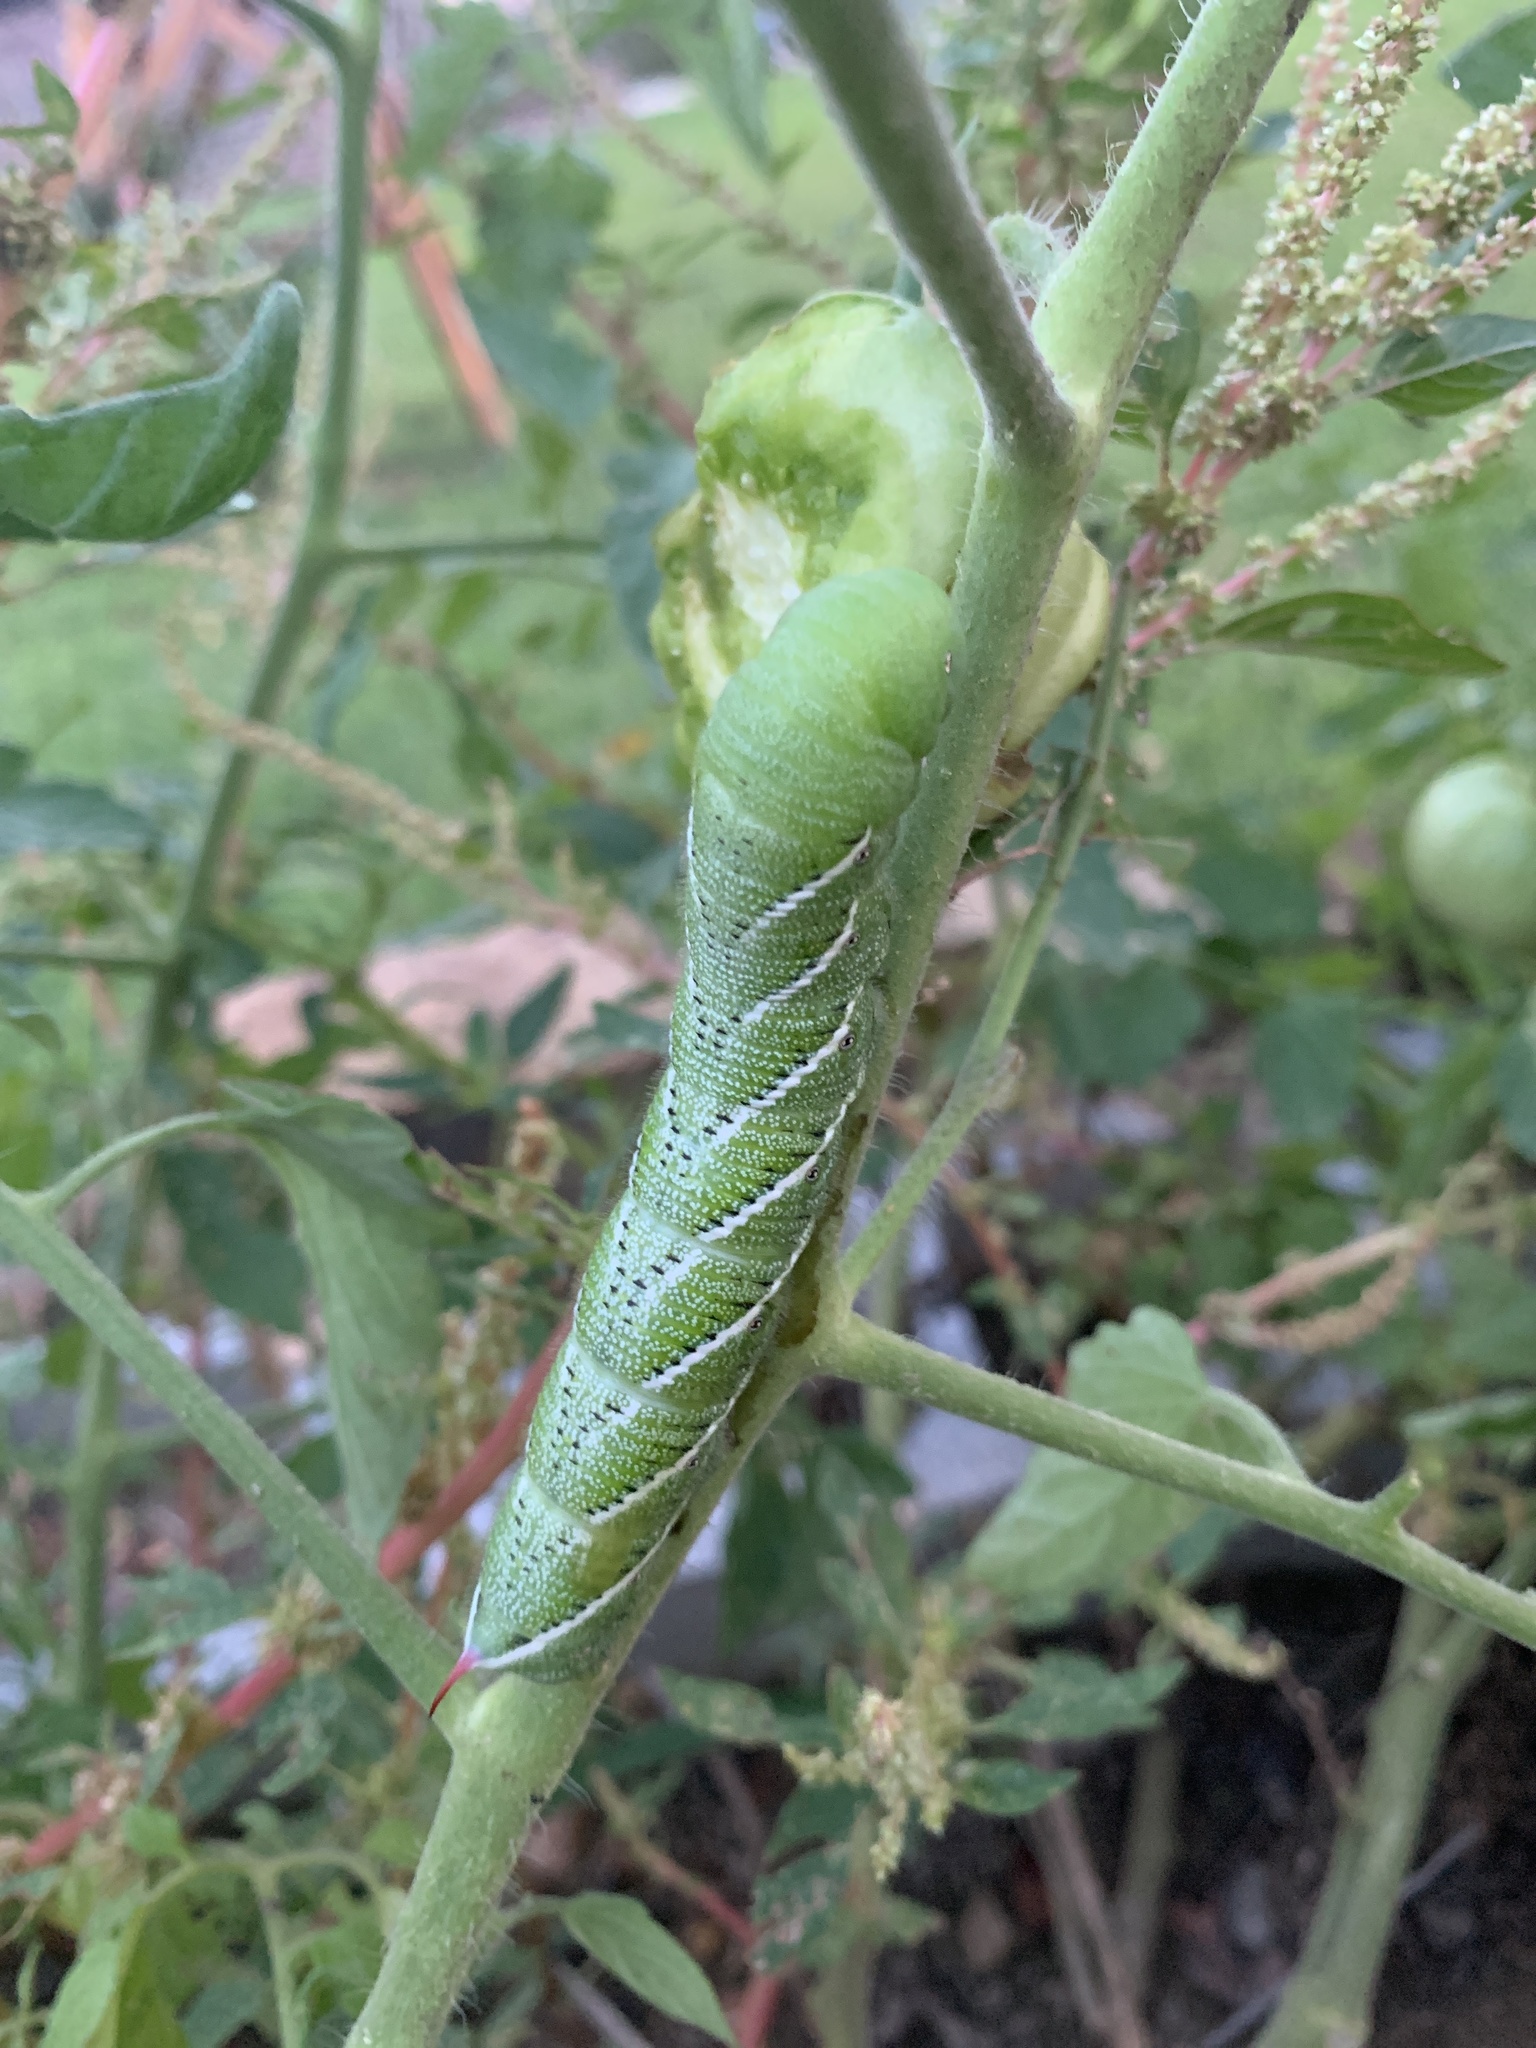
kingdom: Animalia
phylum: Arthropoda
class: Insecta
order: Lepidoptera
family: Sphingidae
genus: Manduca
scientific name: Manduca sexta
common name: Carolina sphinx
